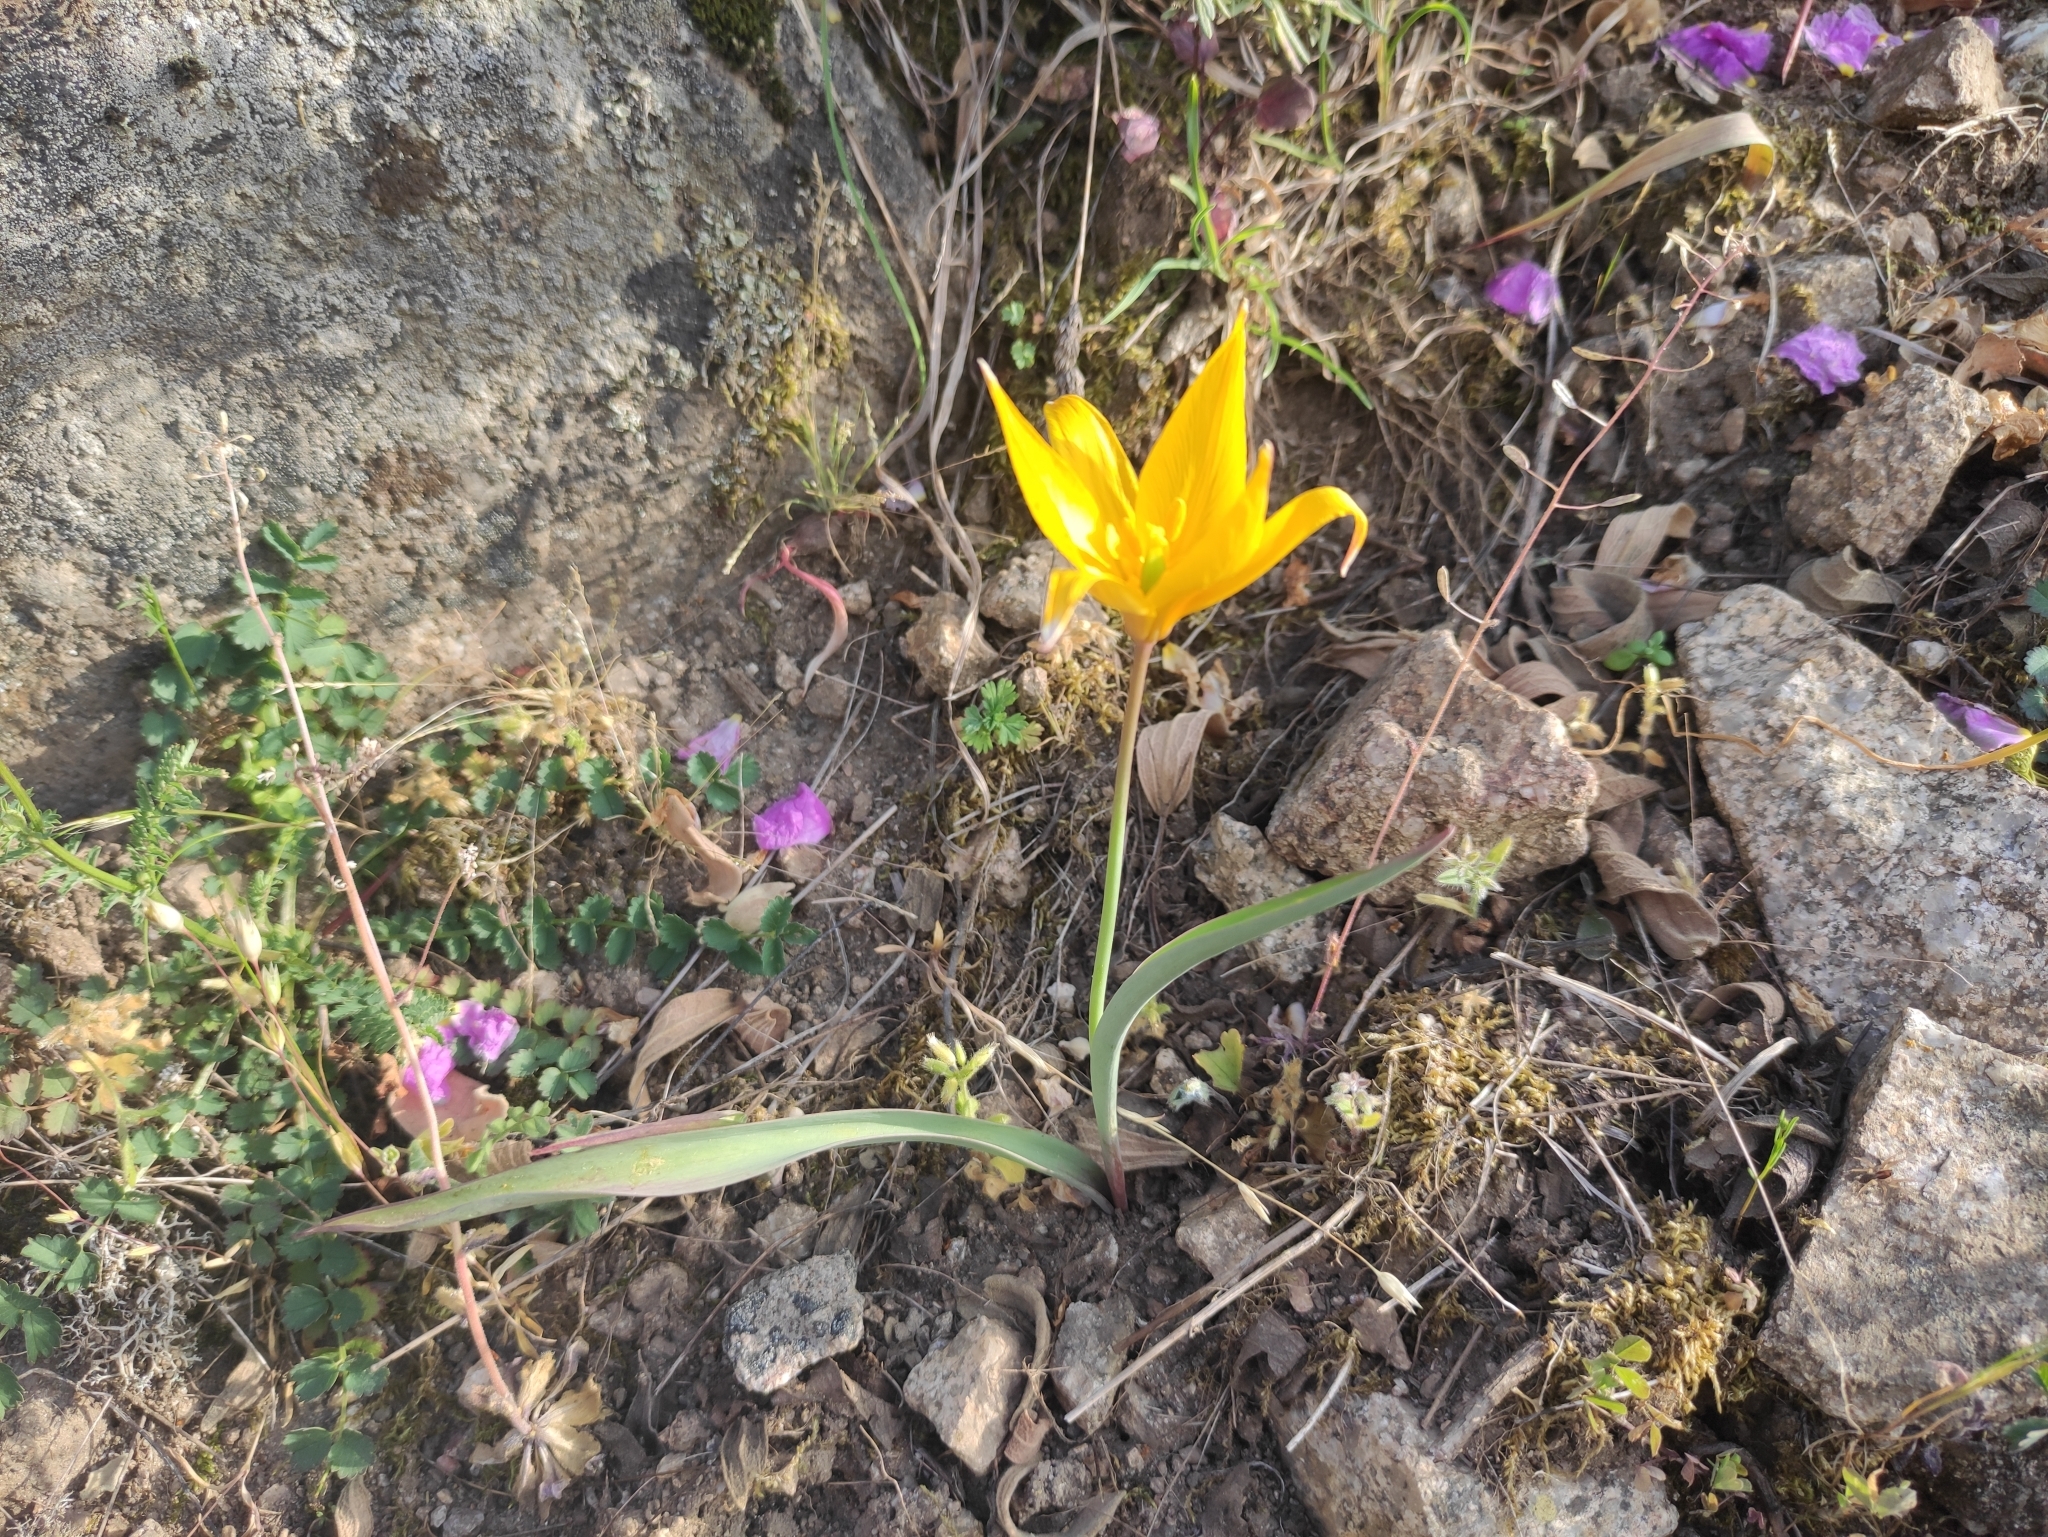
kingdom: Plantae
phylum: Tracheophyta
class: Liliopsida
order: Liliales
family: Liliaceae
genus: Tulipa
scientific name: Tulipa sylvestris
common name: Wild tulip
